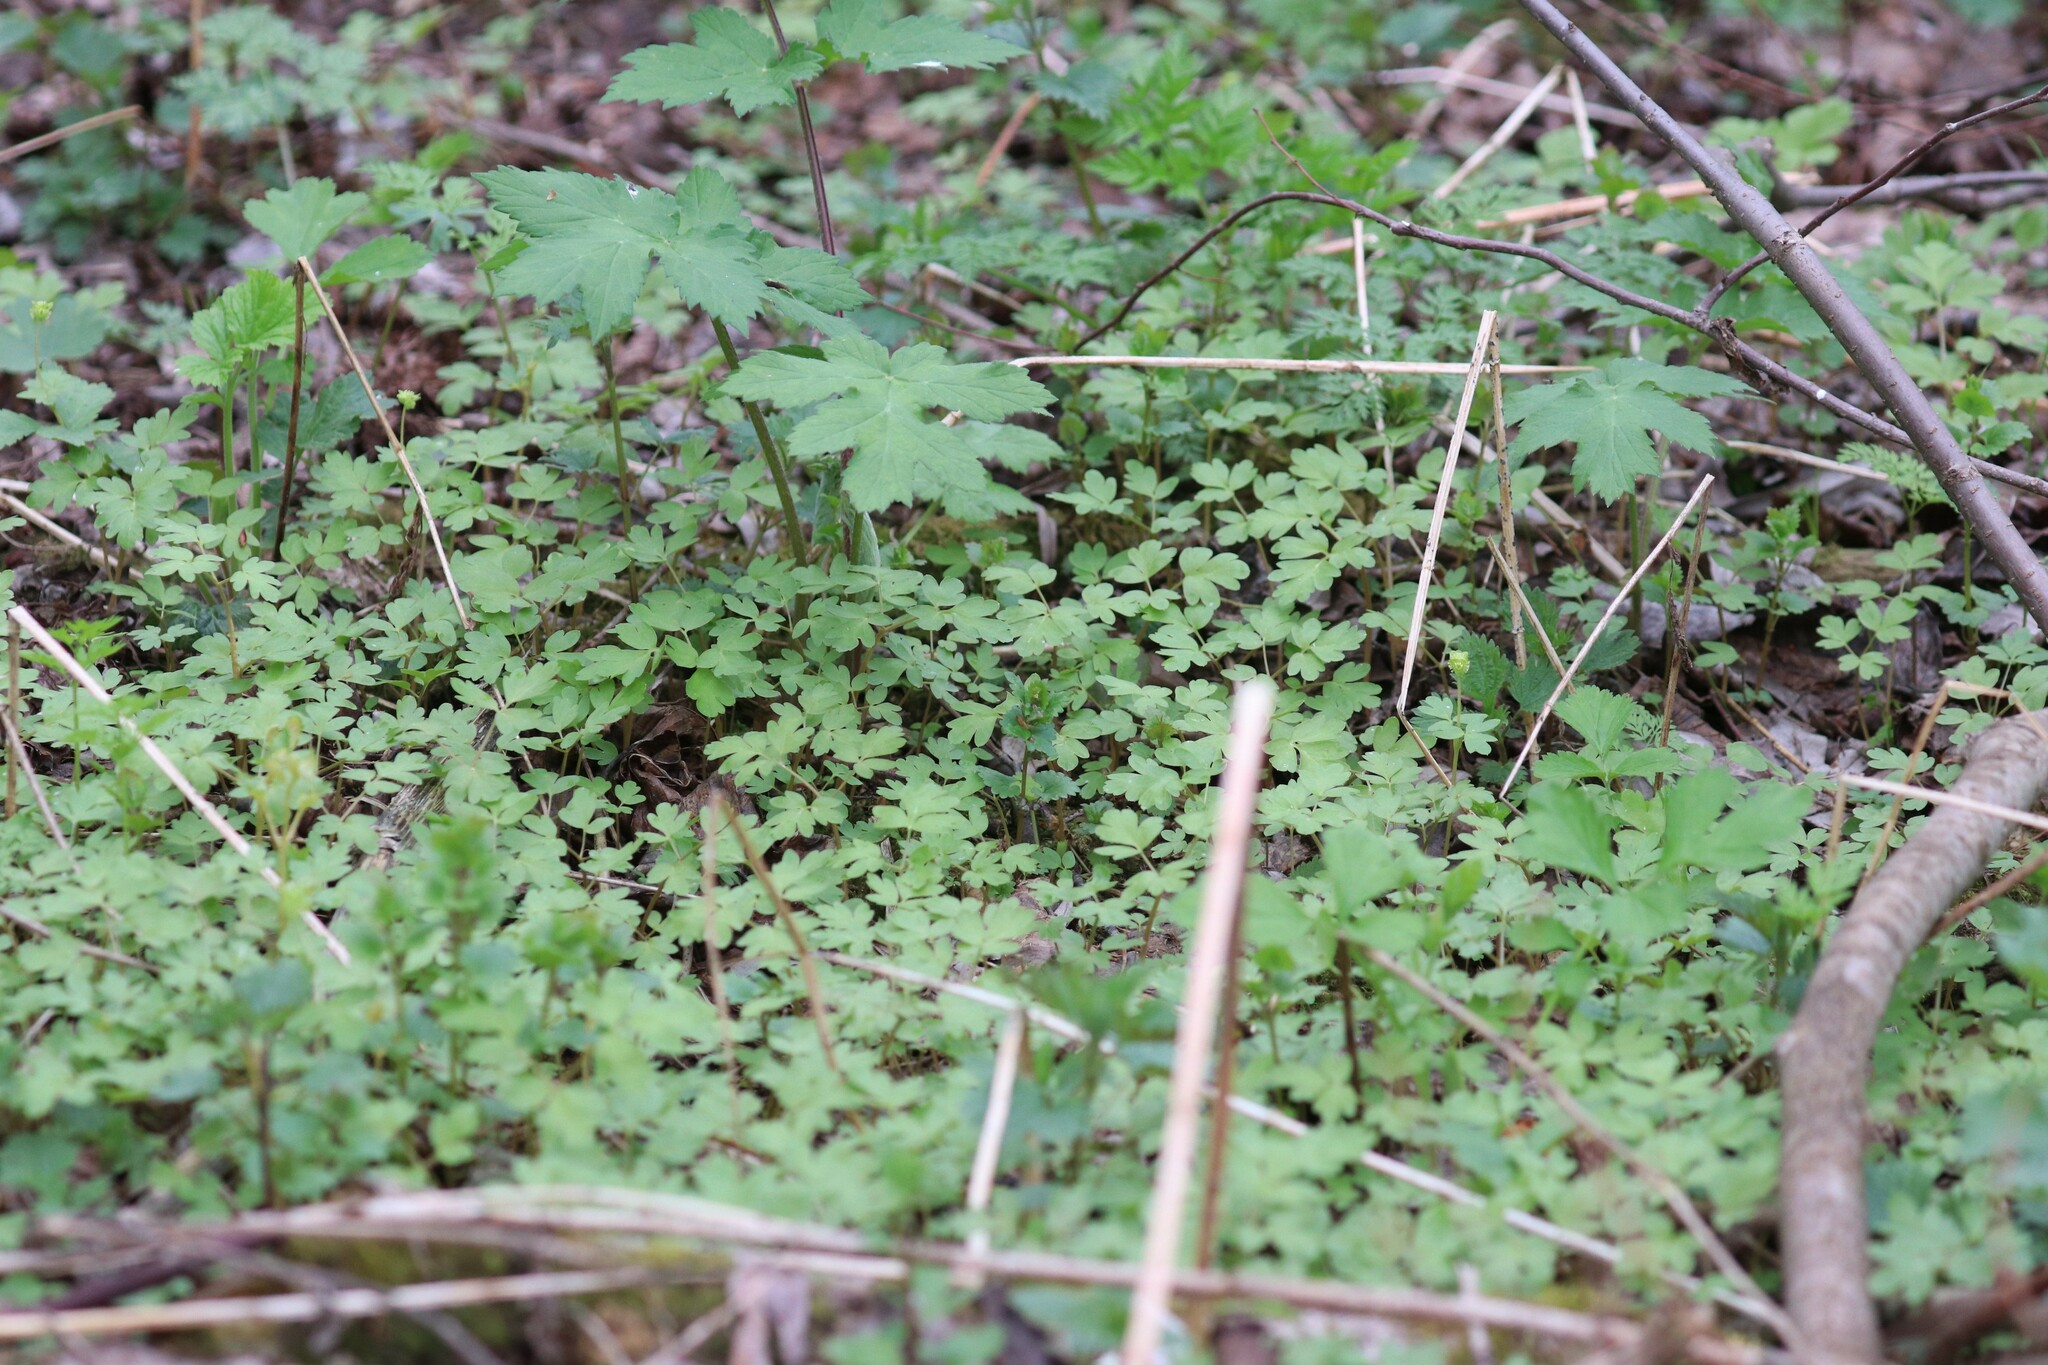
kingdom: Plantae
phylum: Tracheophyta
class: Magnoliopsida
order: Dipsacales
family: Viburnaceae
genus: Adoxa
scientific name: Adoxa moschatellina
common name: Moschatel
